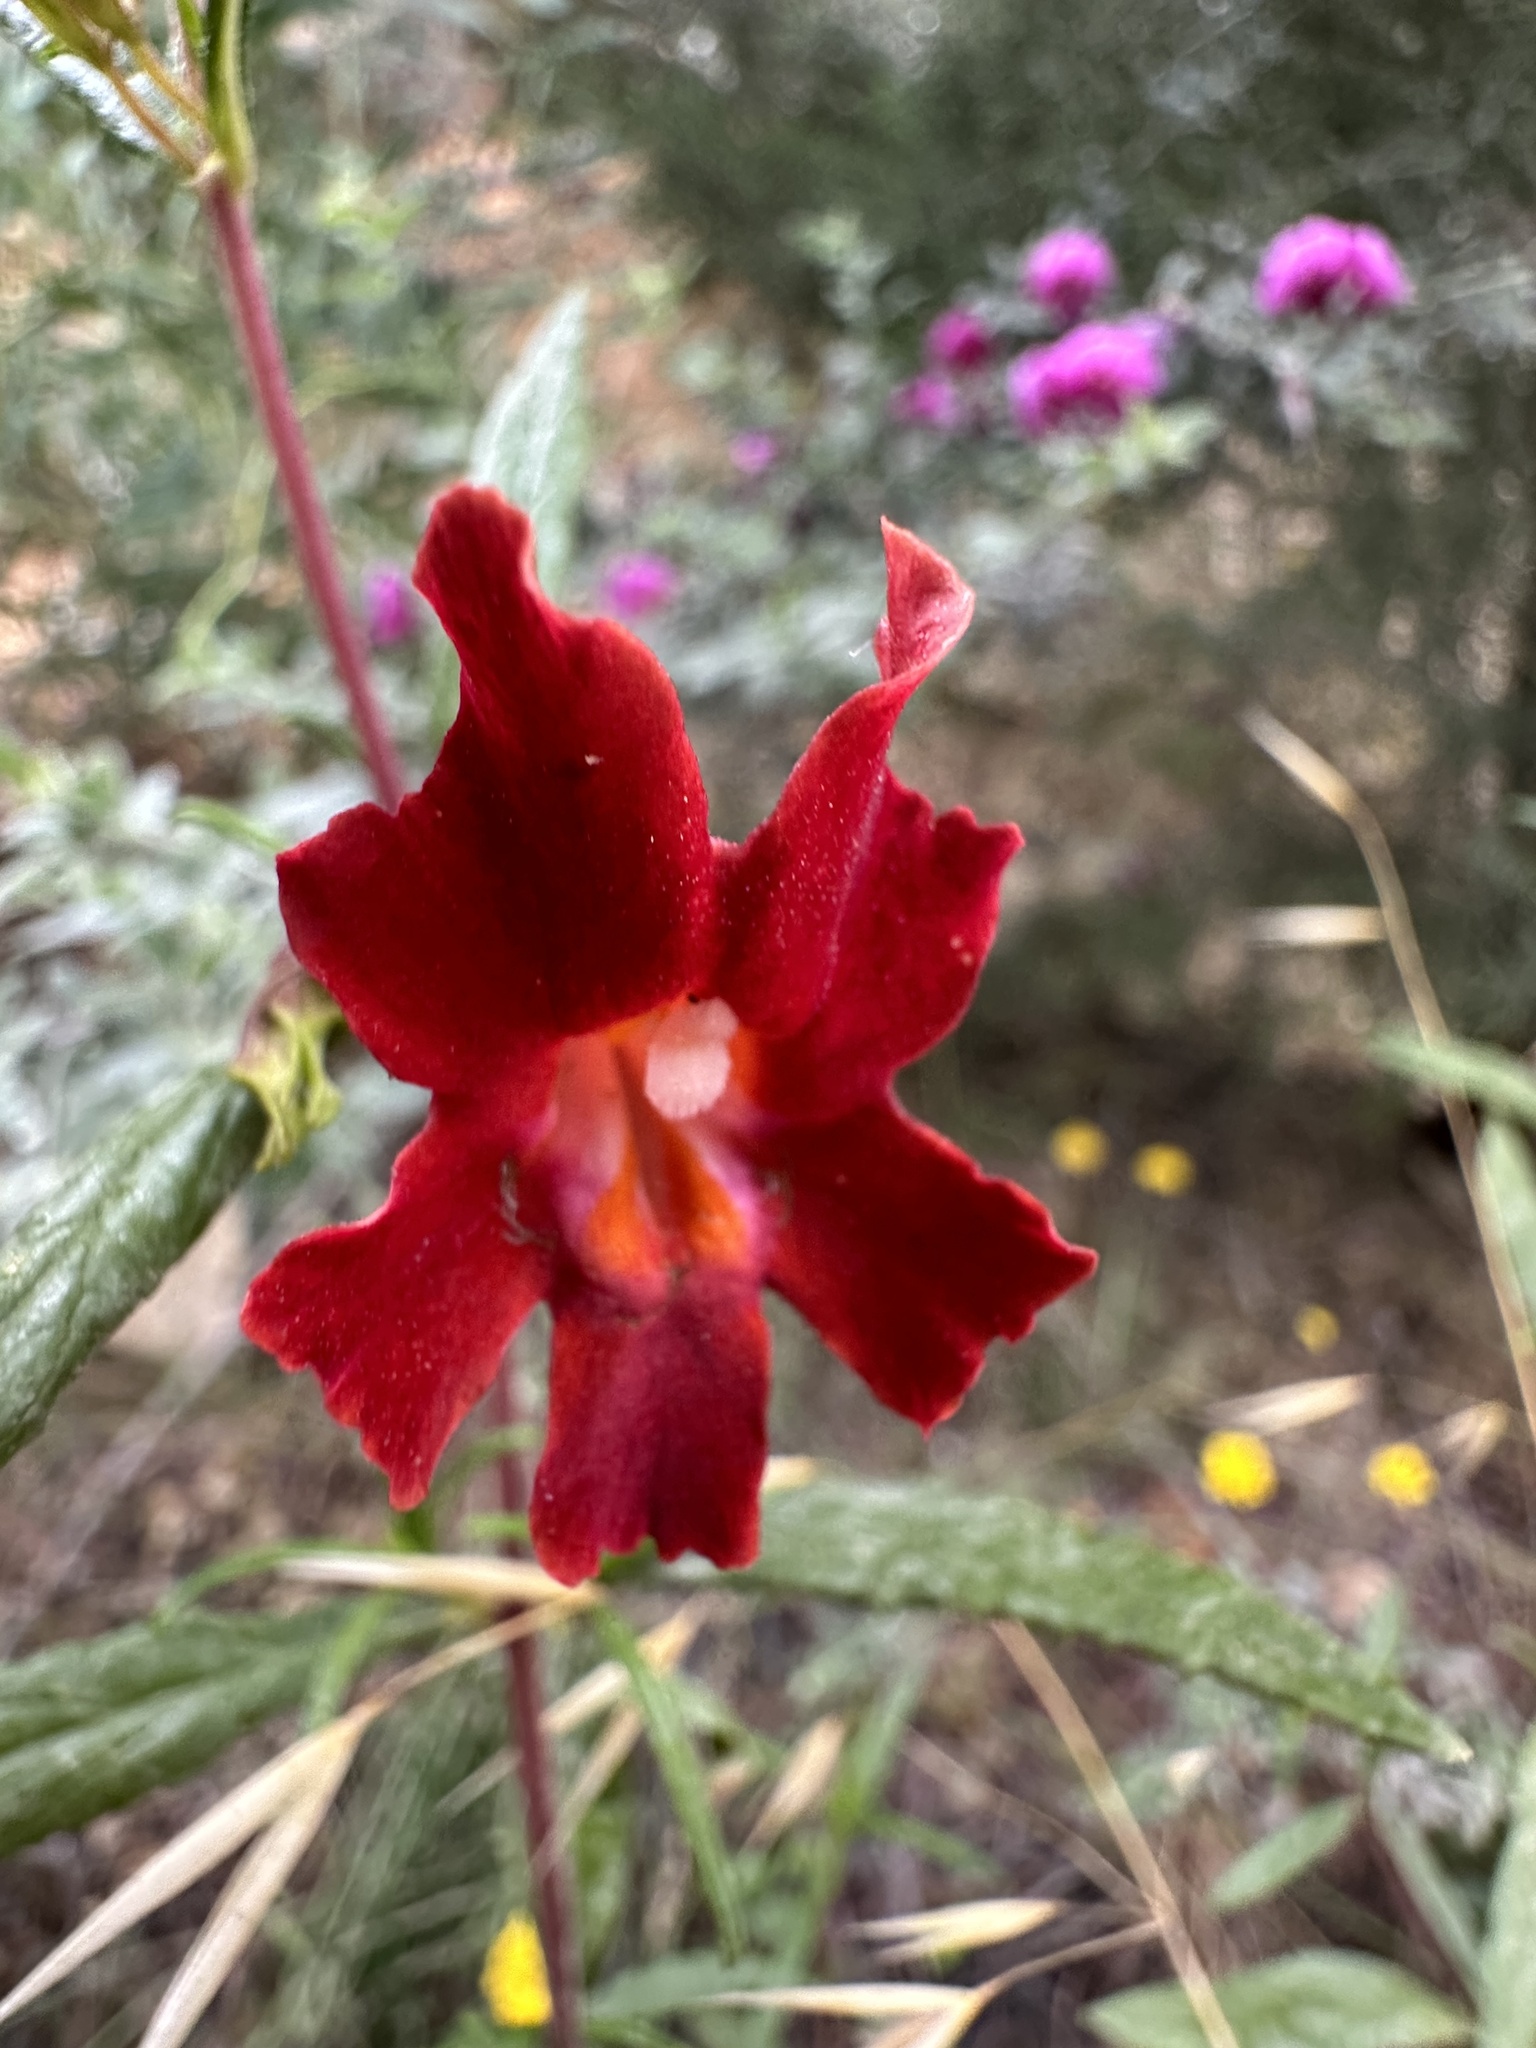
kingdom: Plantae
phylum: Tracheophyta
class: Magnoliopsida
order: Lamiales
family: Phrymaceae
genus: Diplacus
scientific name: Diplacus puniceus
